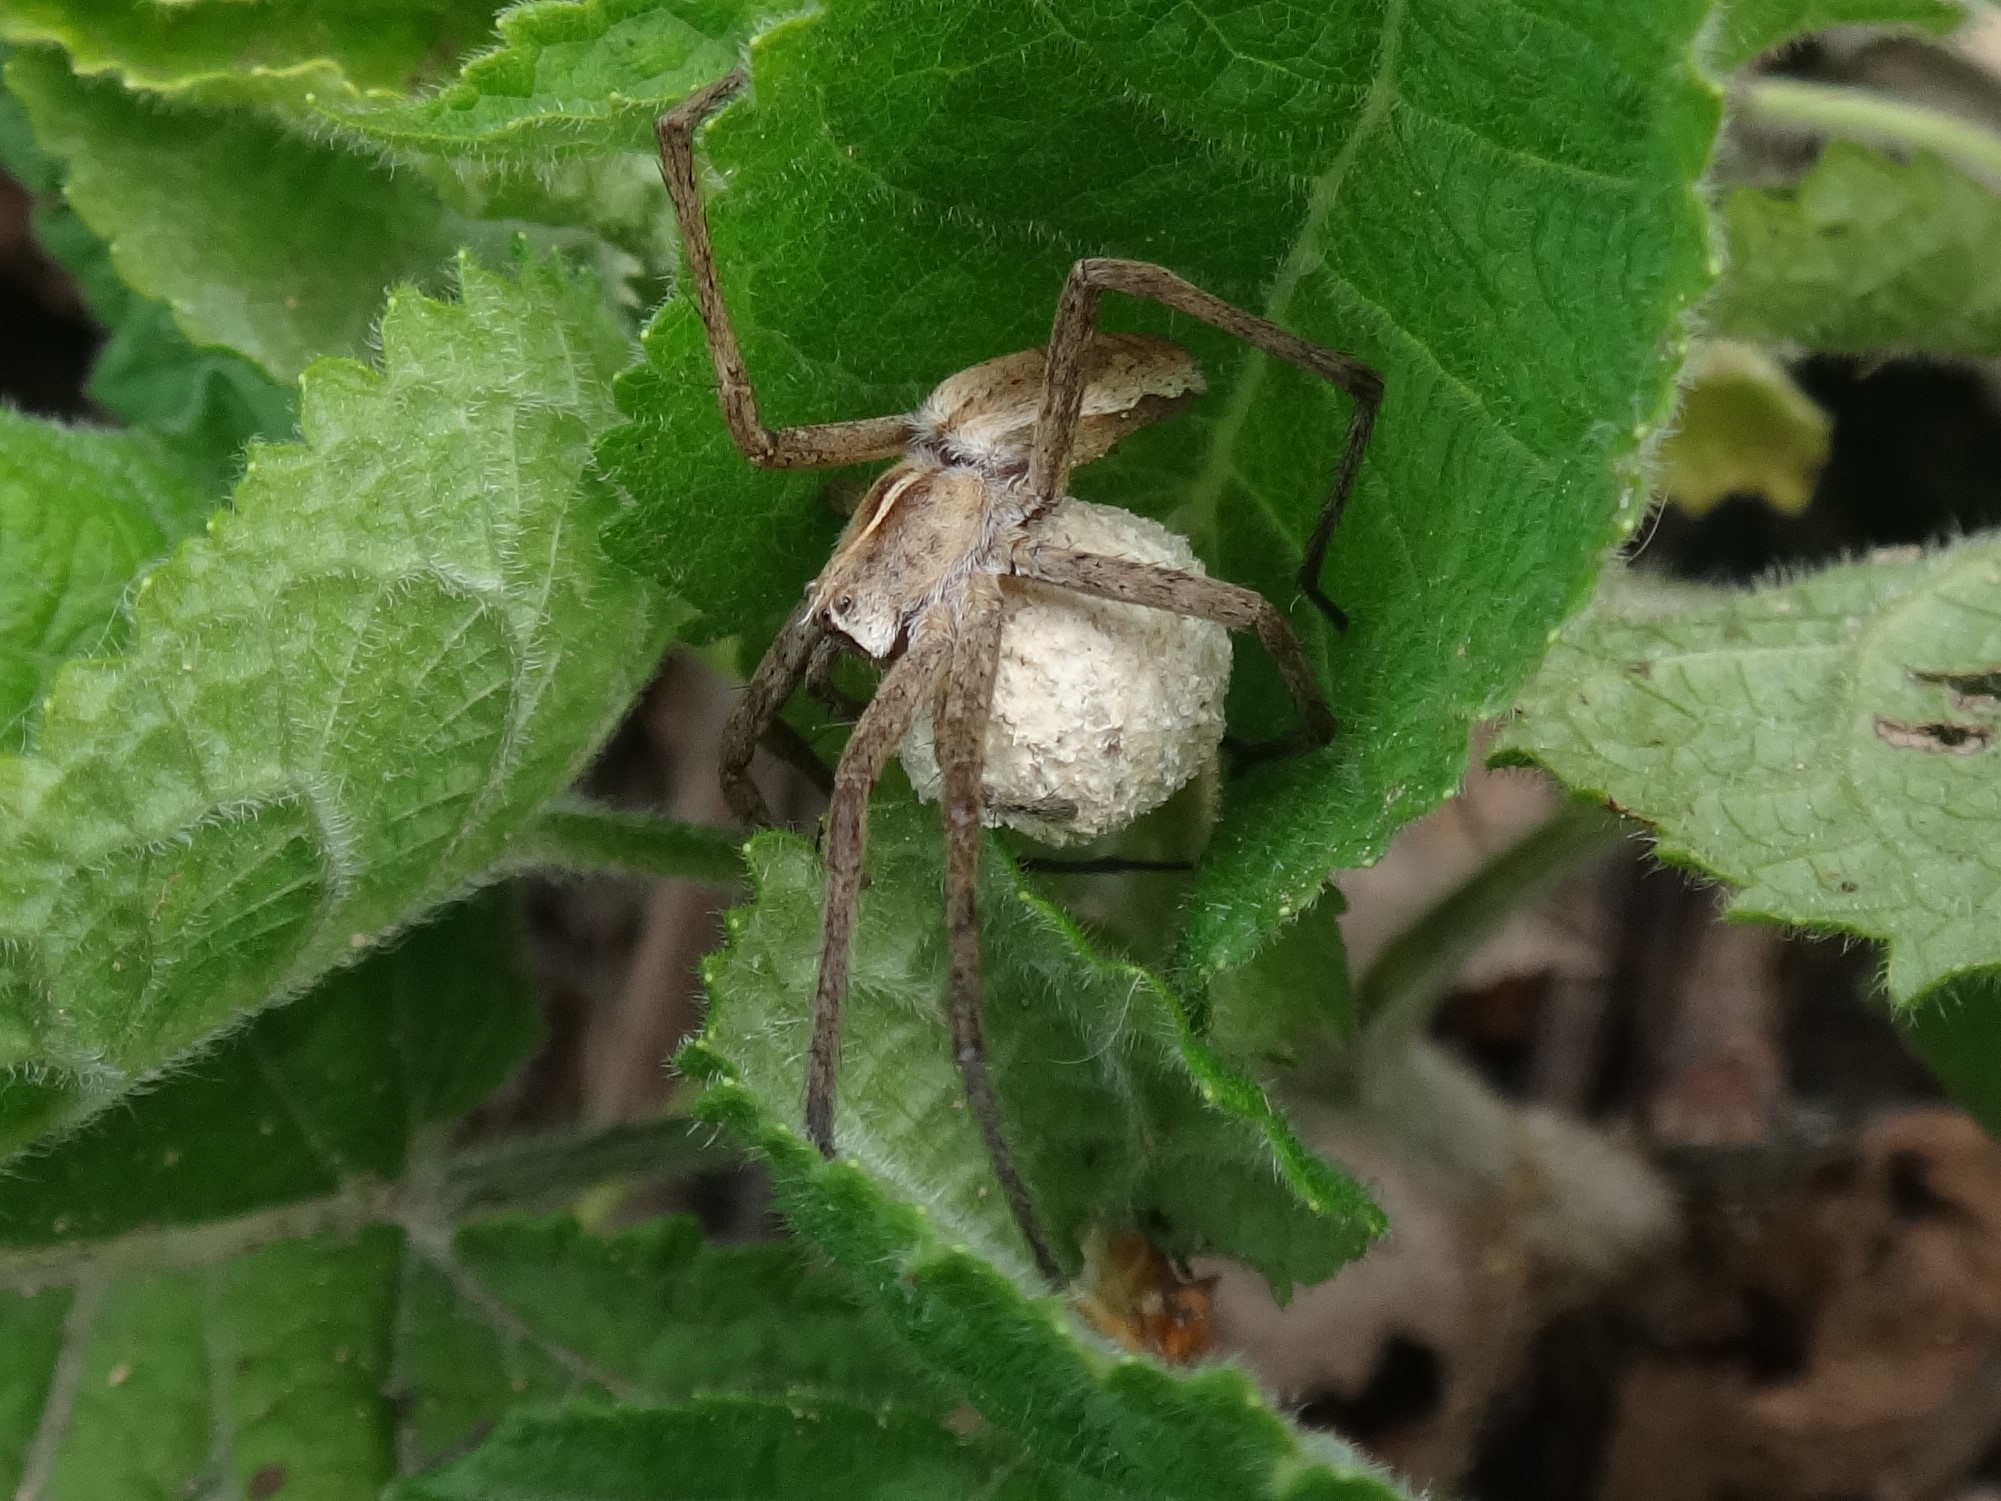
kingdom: Animalia
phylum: Arthropoda
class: Arachnida
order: Araneae
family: Pisauridae
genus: Pisaura
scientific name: Pisaura mirabilis
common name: Tent spider
